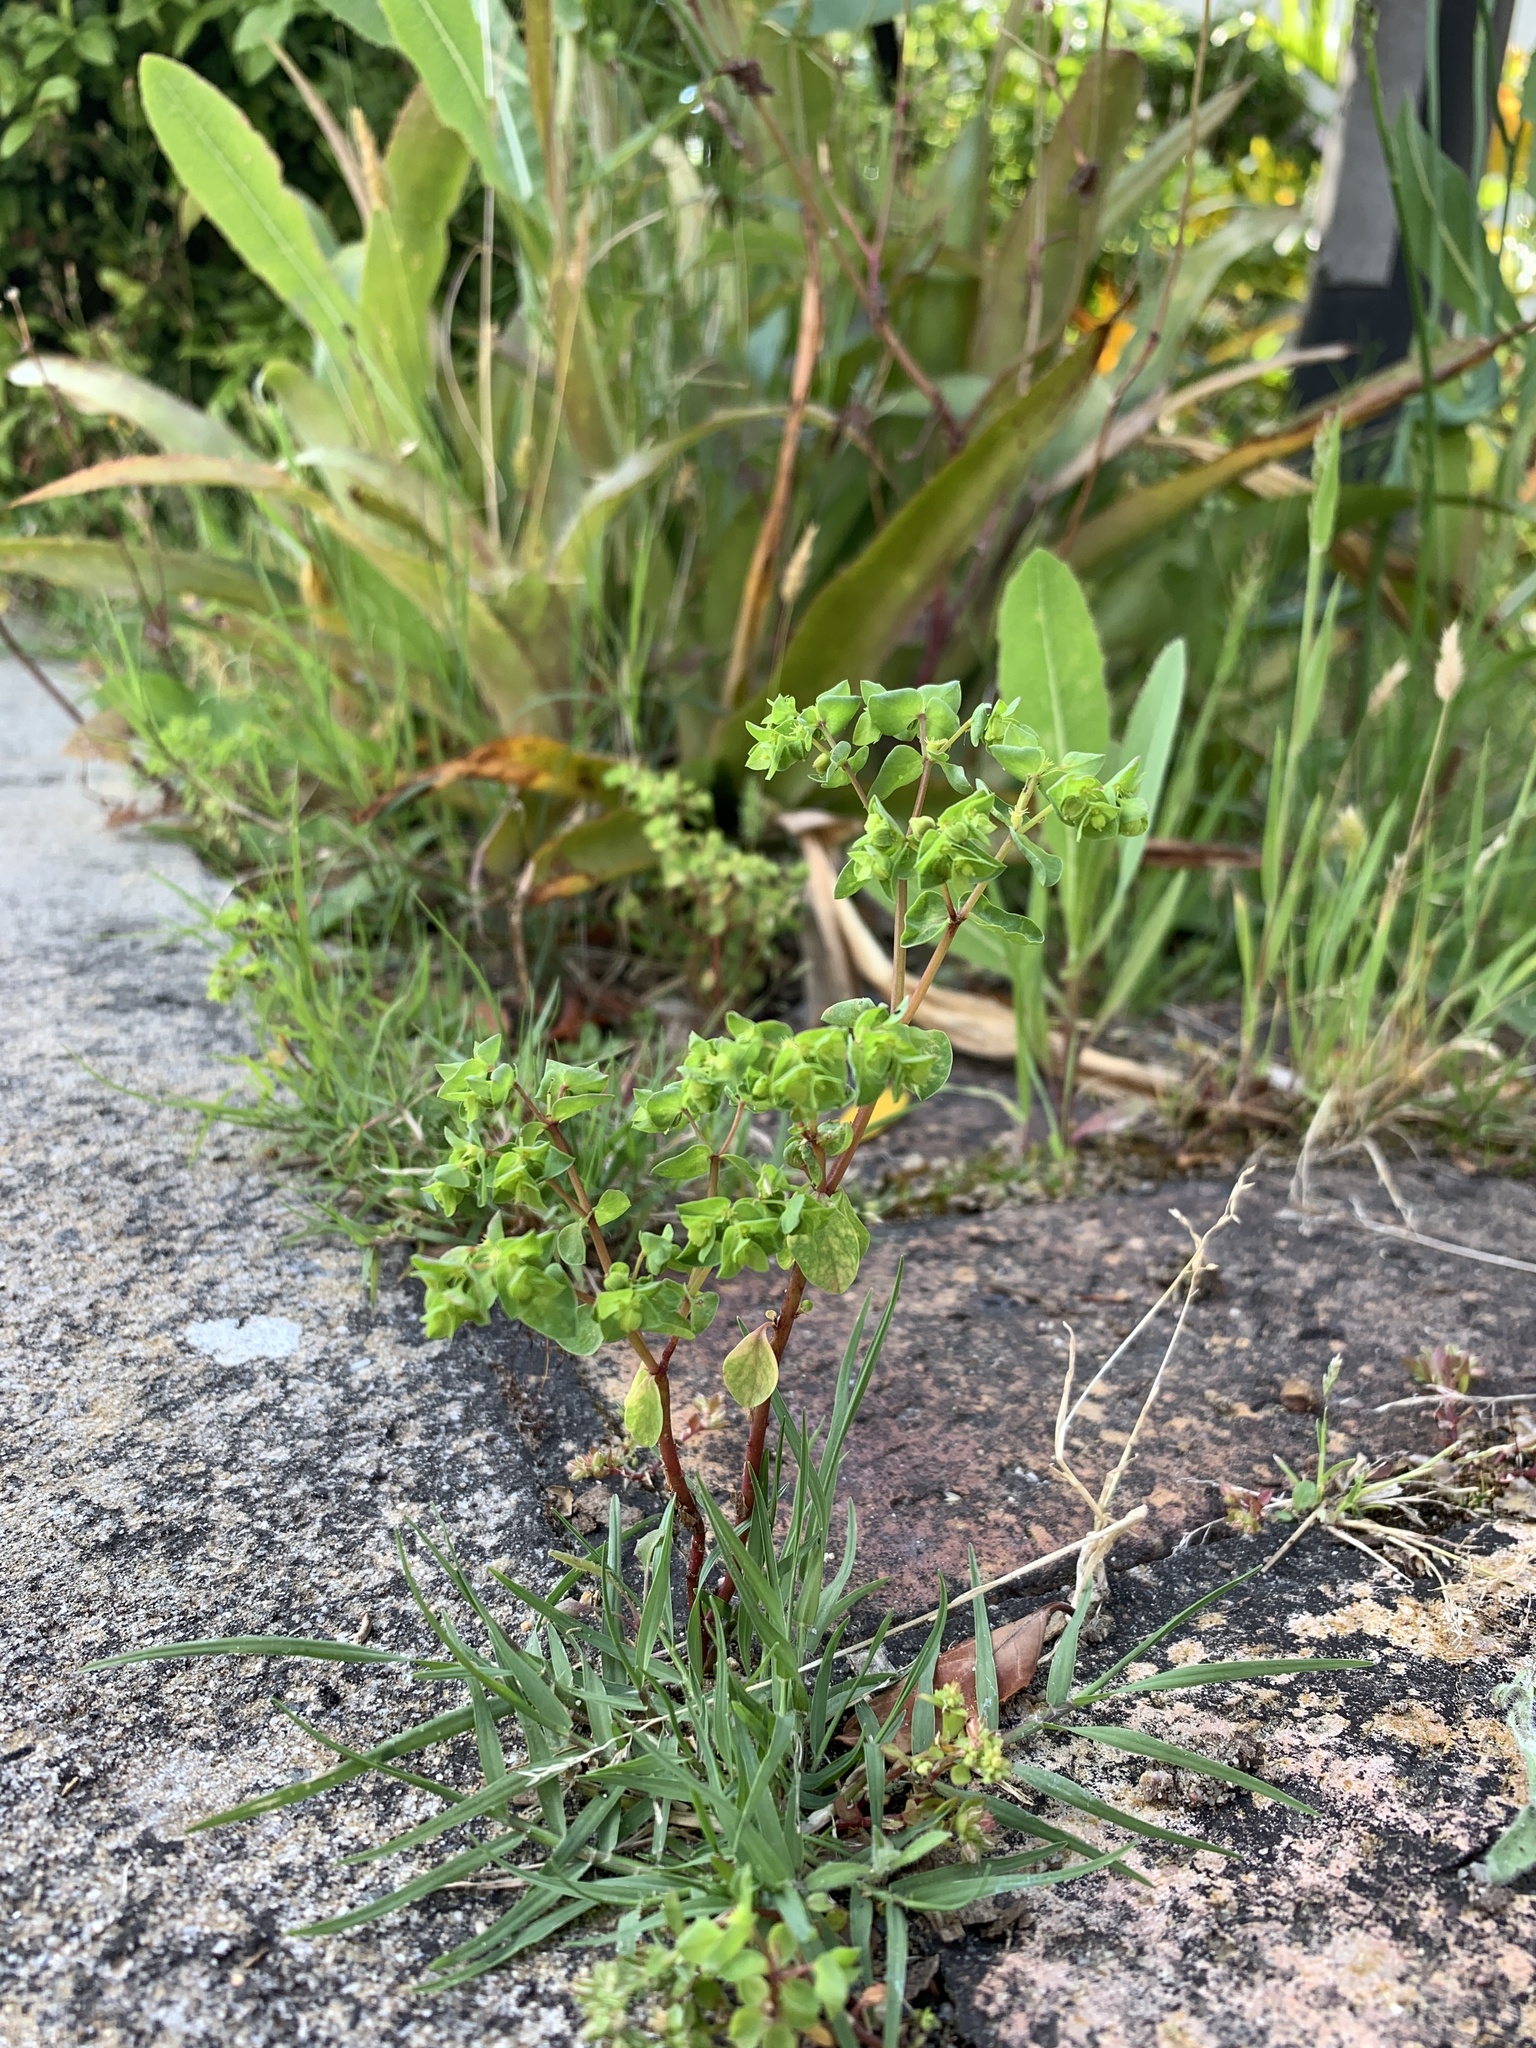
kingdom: Plantae
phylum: Tracheophyta
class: Magnoliopsida
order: Malpighiales
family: Euphorbiaceae
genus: Euphorbia
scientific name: Euphorbia peplus
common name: Petty spurge
